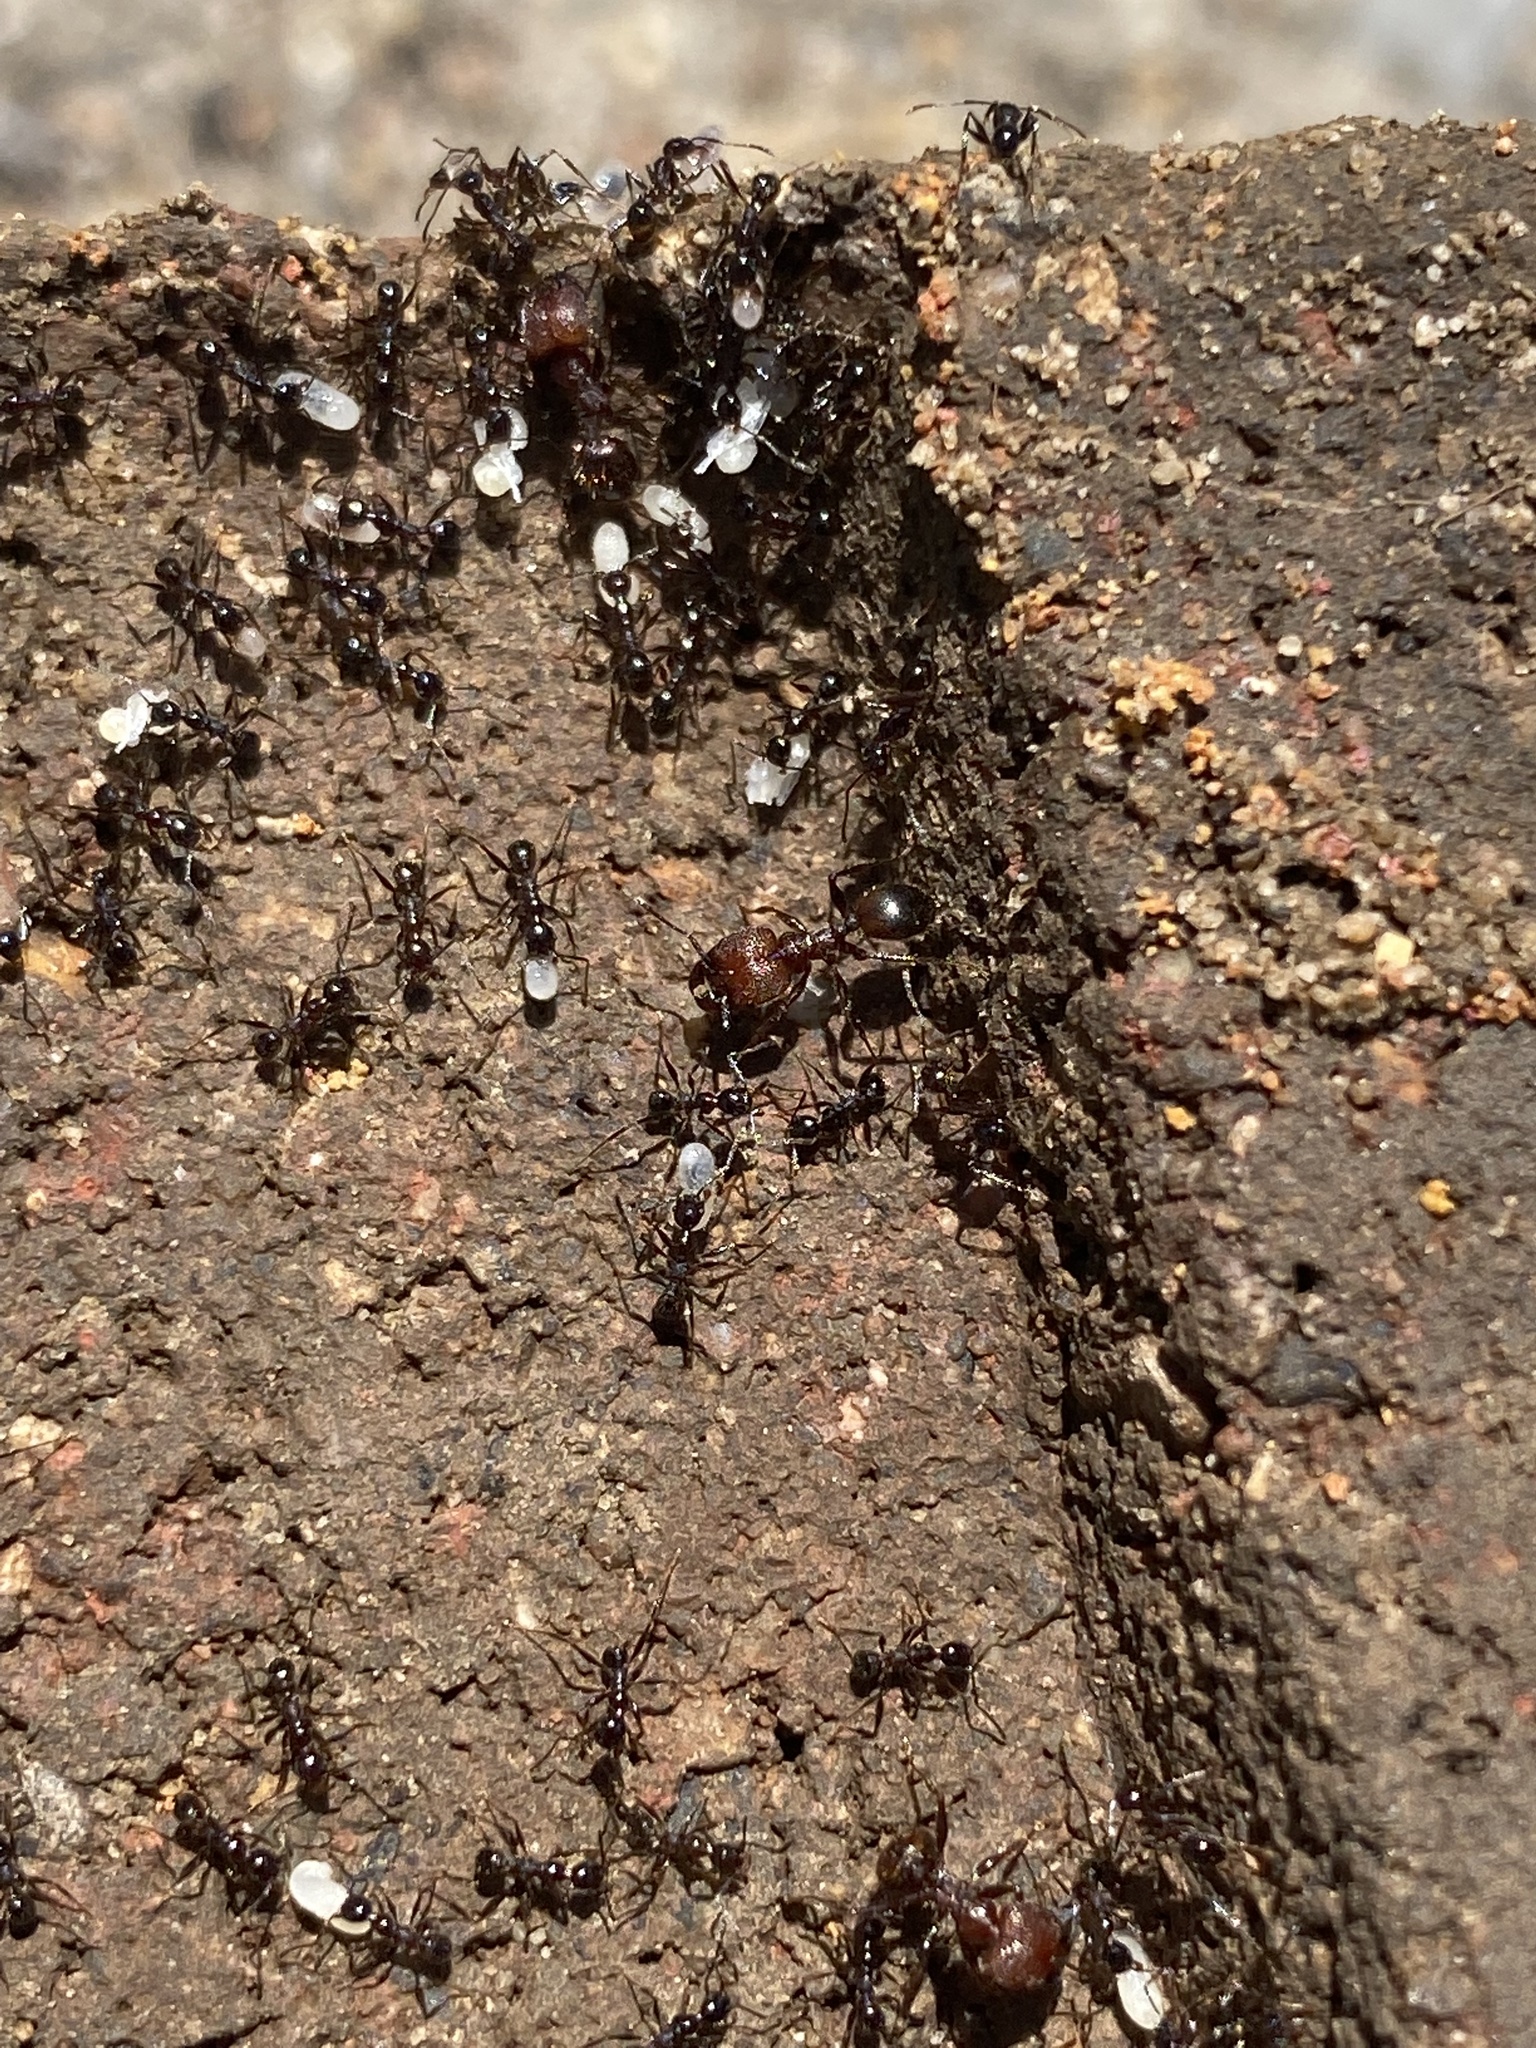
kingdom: Animalia
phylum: Arthropoda
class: Insecta
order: Hymenoptera
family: Formicidae
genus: Pheidole
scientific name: Pheidole obscurithorax
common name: Obscure big-headed ant
